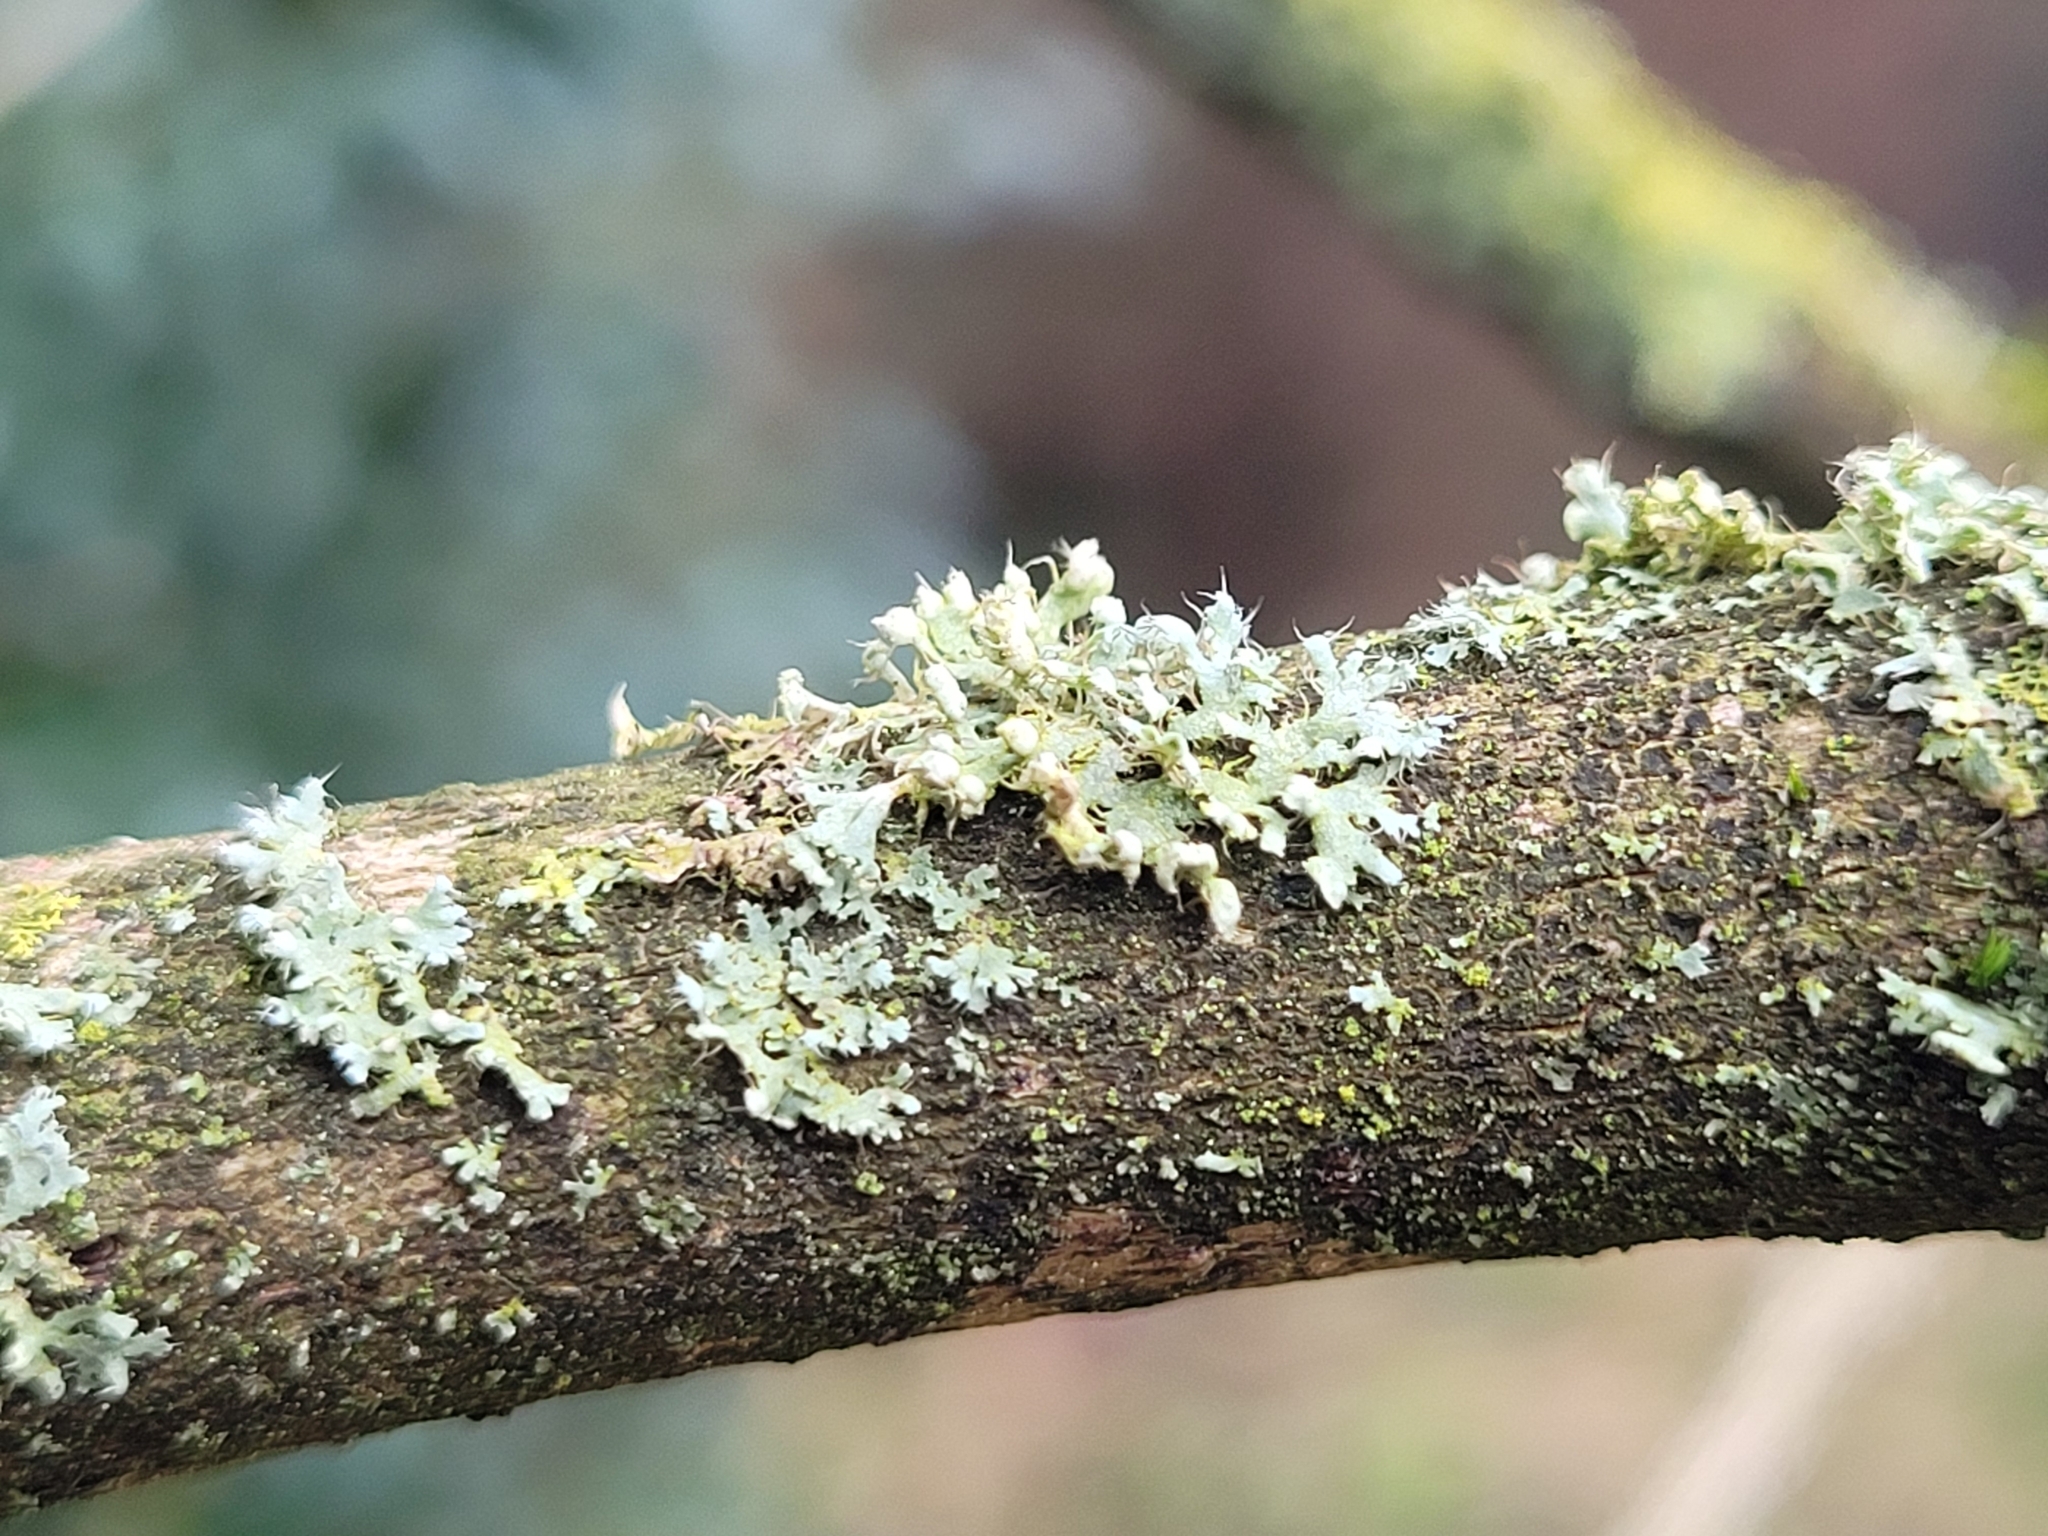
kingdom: Fungi
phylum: Ascomycota
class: Lecanoromycetes
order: Caliciales
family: Physciaceae
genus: Physcia
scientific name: Physcia adscendens
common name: Hooded rosette lichen
